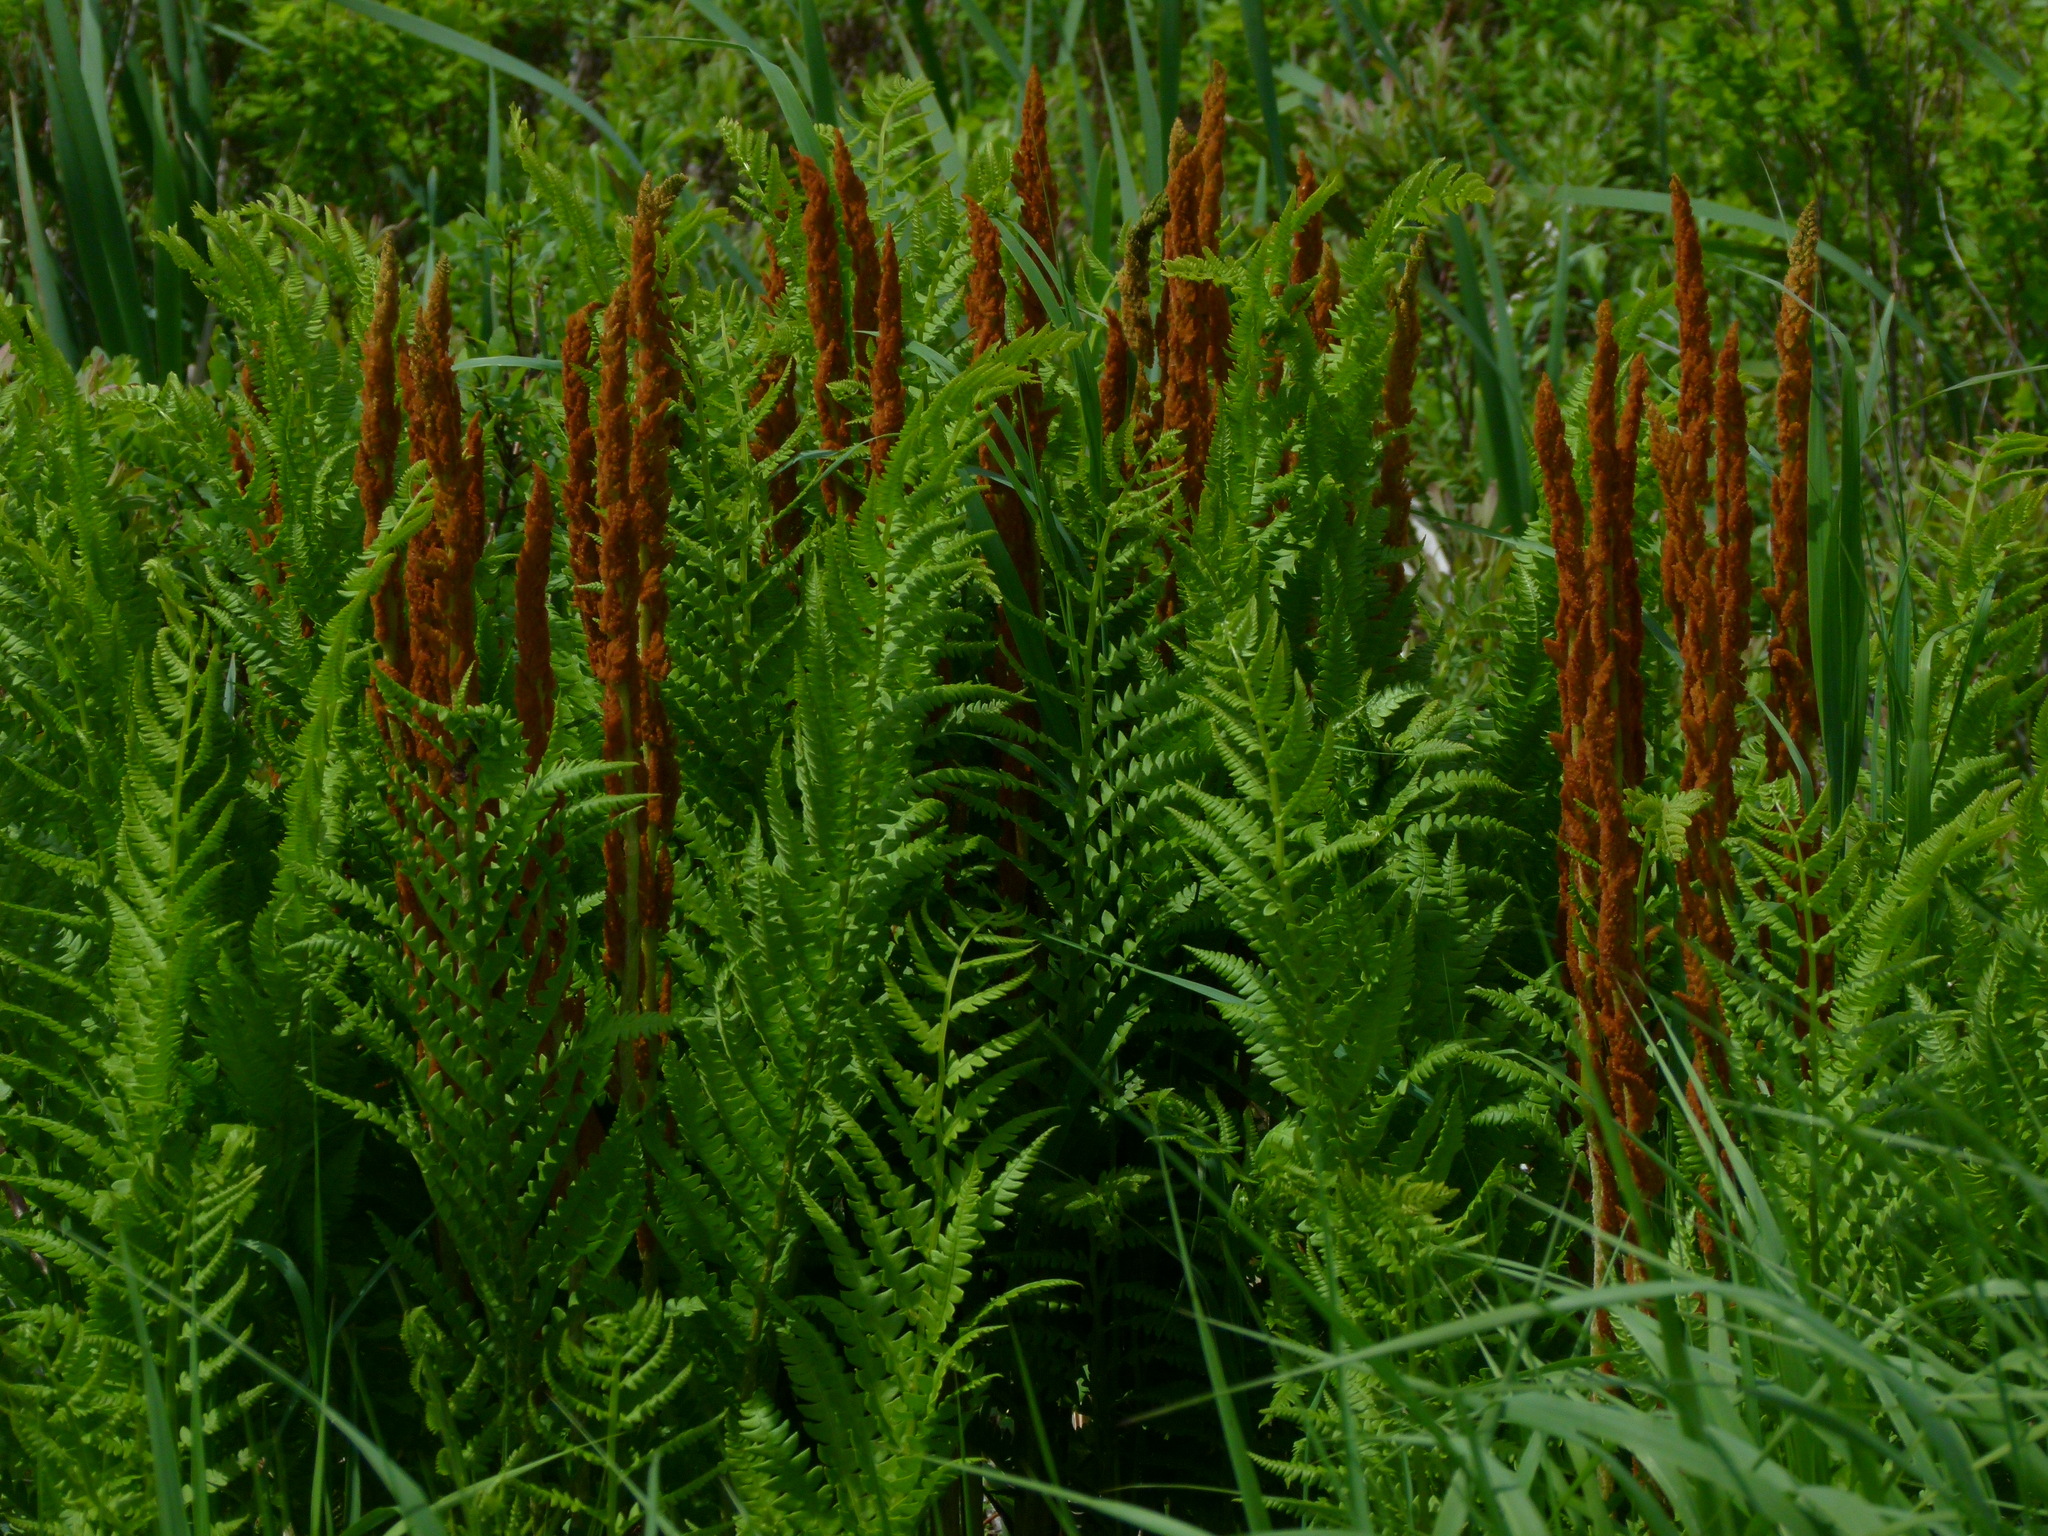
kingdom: Plantae
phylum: Tracheophyta
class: Polypodiopsida
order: Osmundales
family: Osmundaceae
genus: Osmundastrum
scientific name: Osmundastrum cinnamomeum
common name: Cinnamon fern
